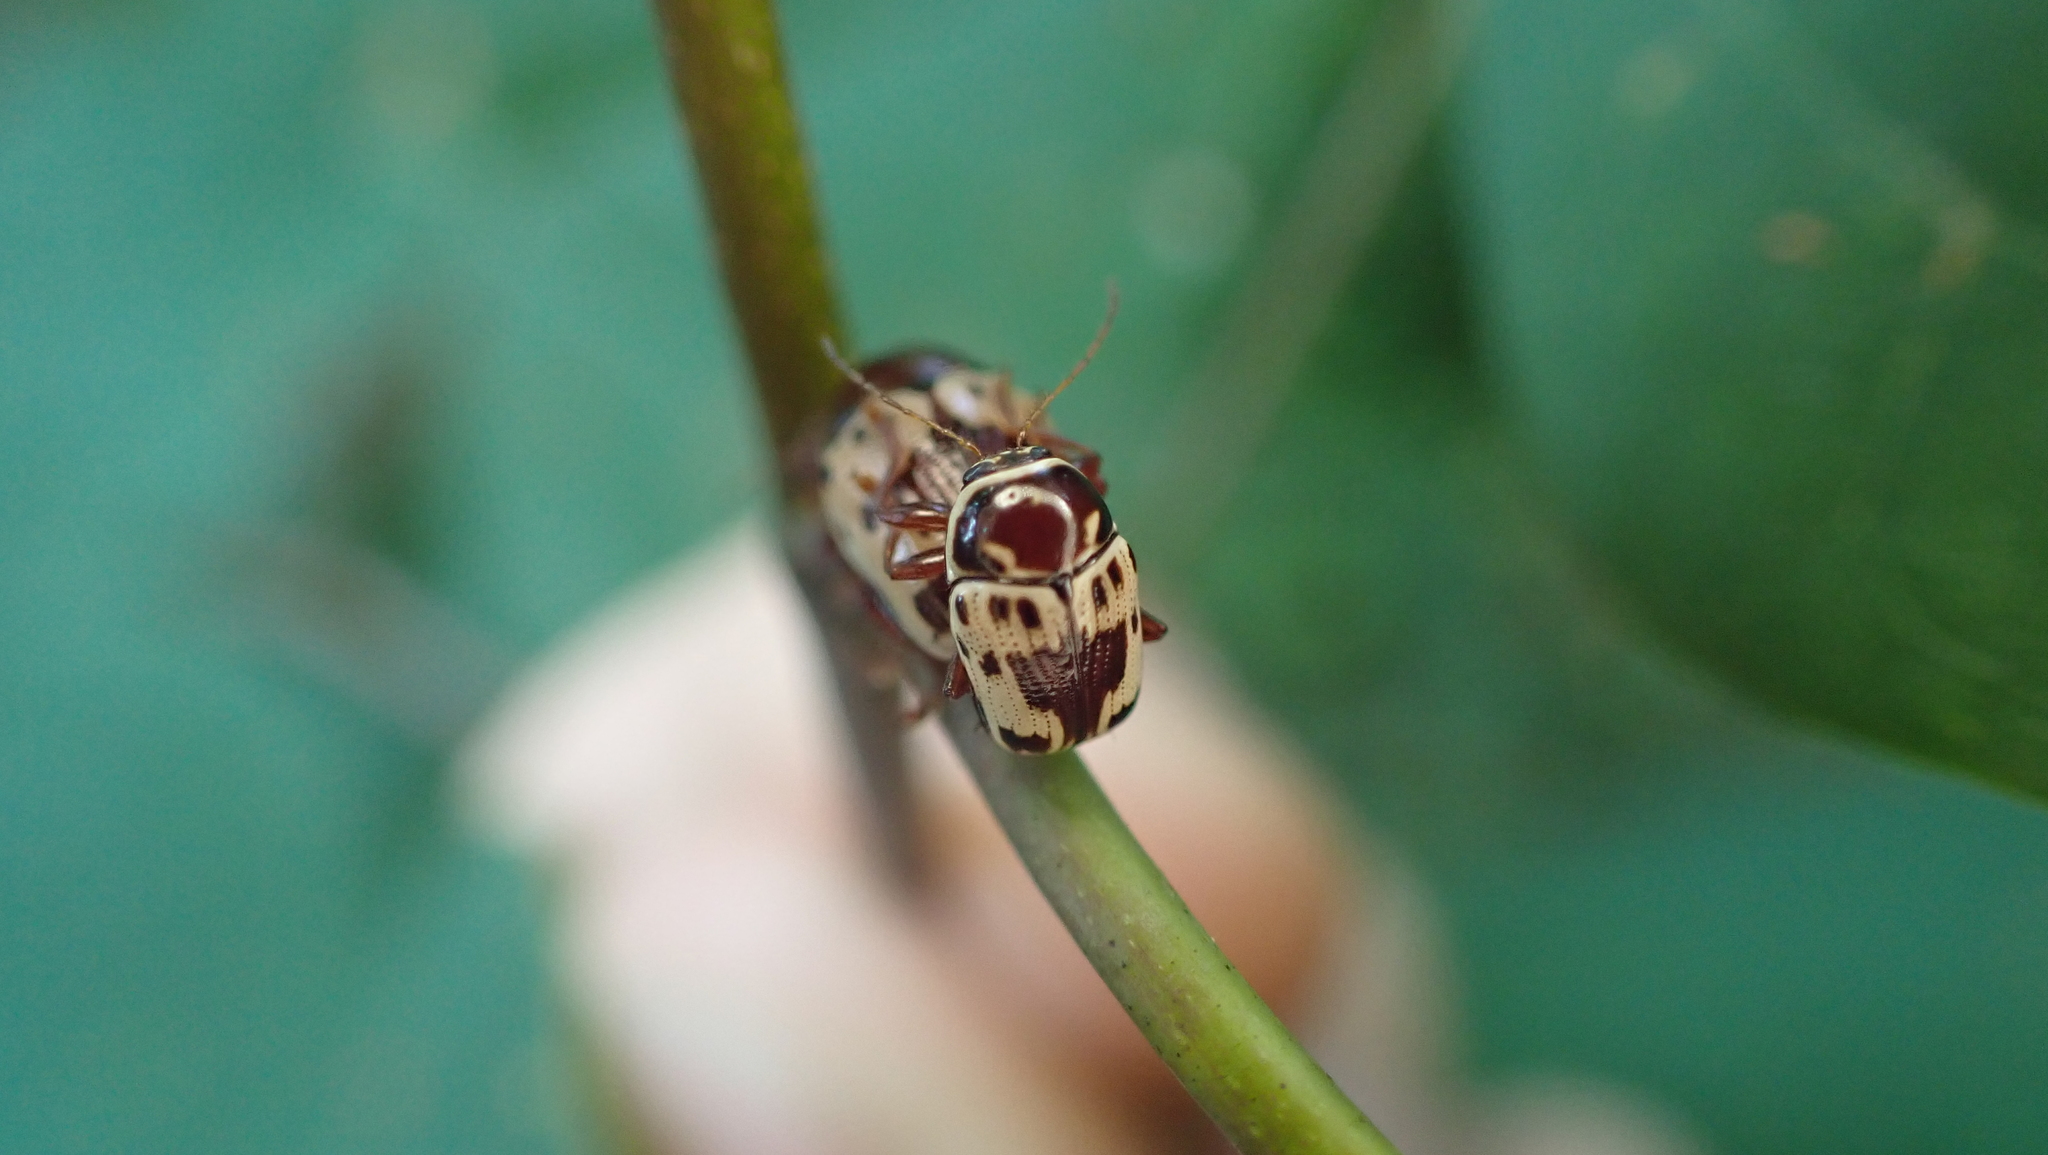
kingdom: Animalia
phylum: Arthropoda
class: Insecta
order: Coleoptera
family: Chrysomelidae
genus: Cryptocephalus
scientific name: Cryptocephalus mutabilis
